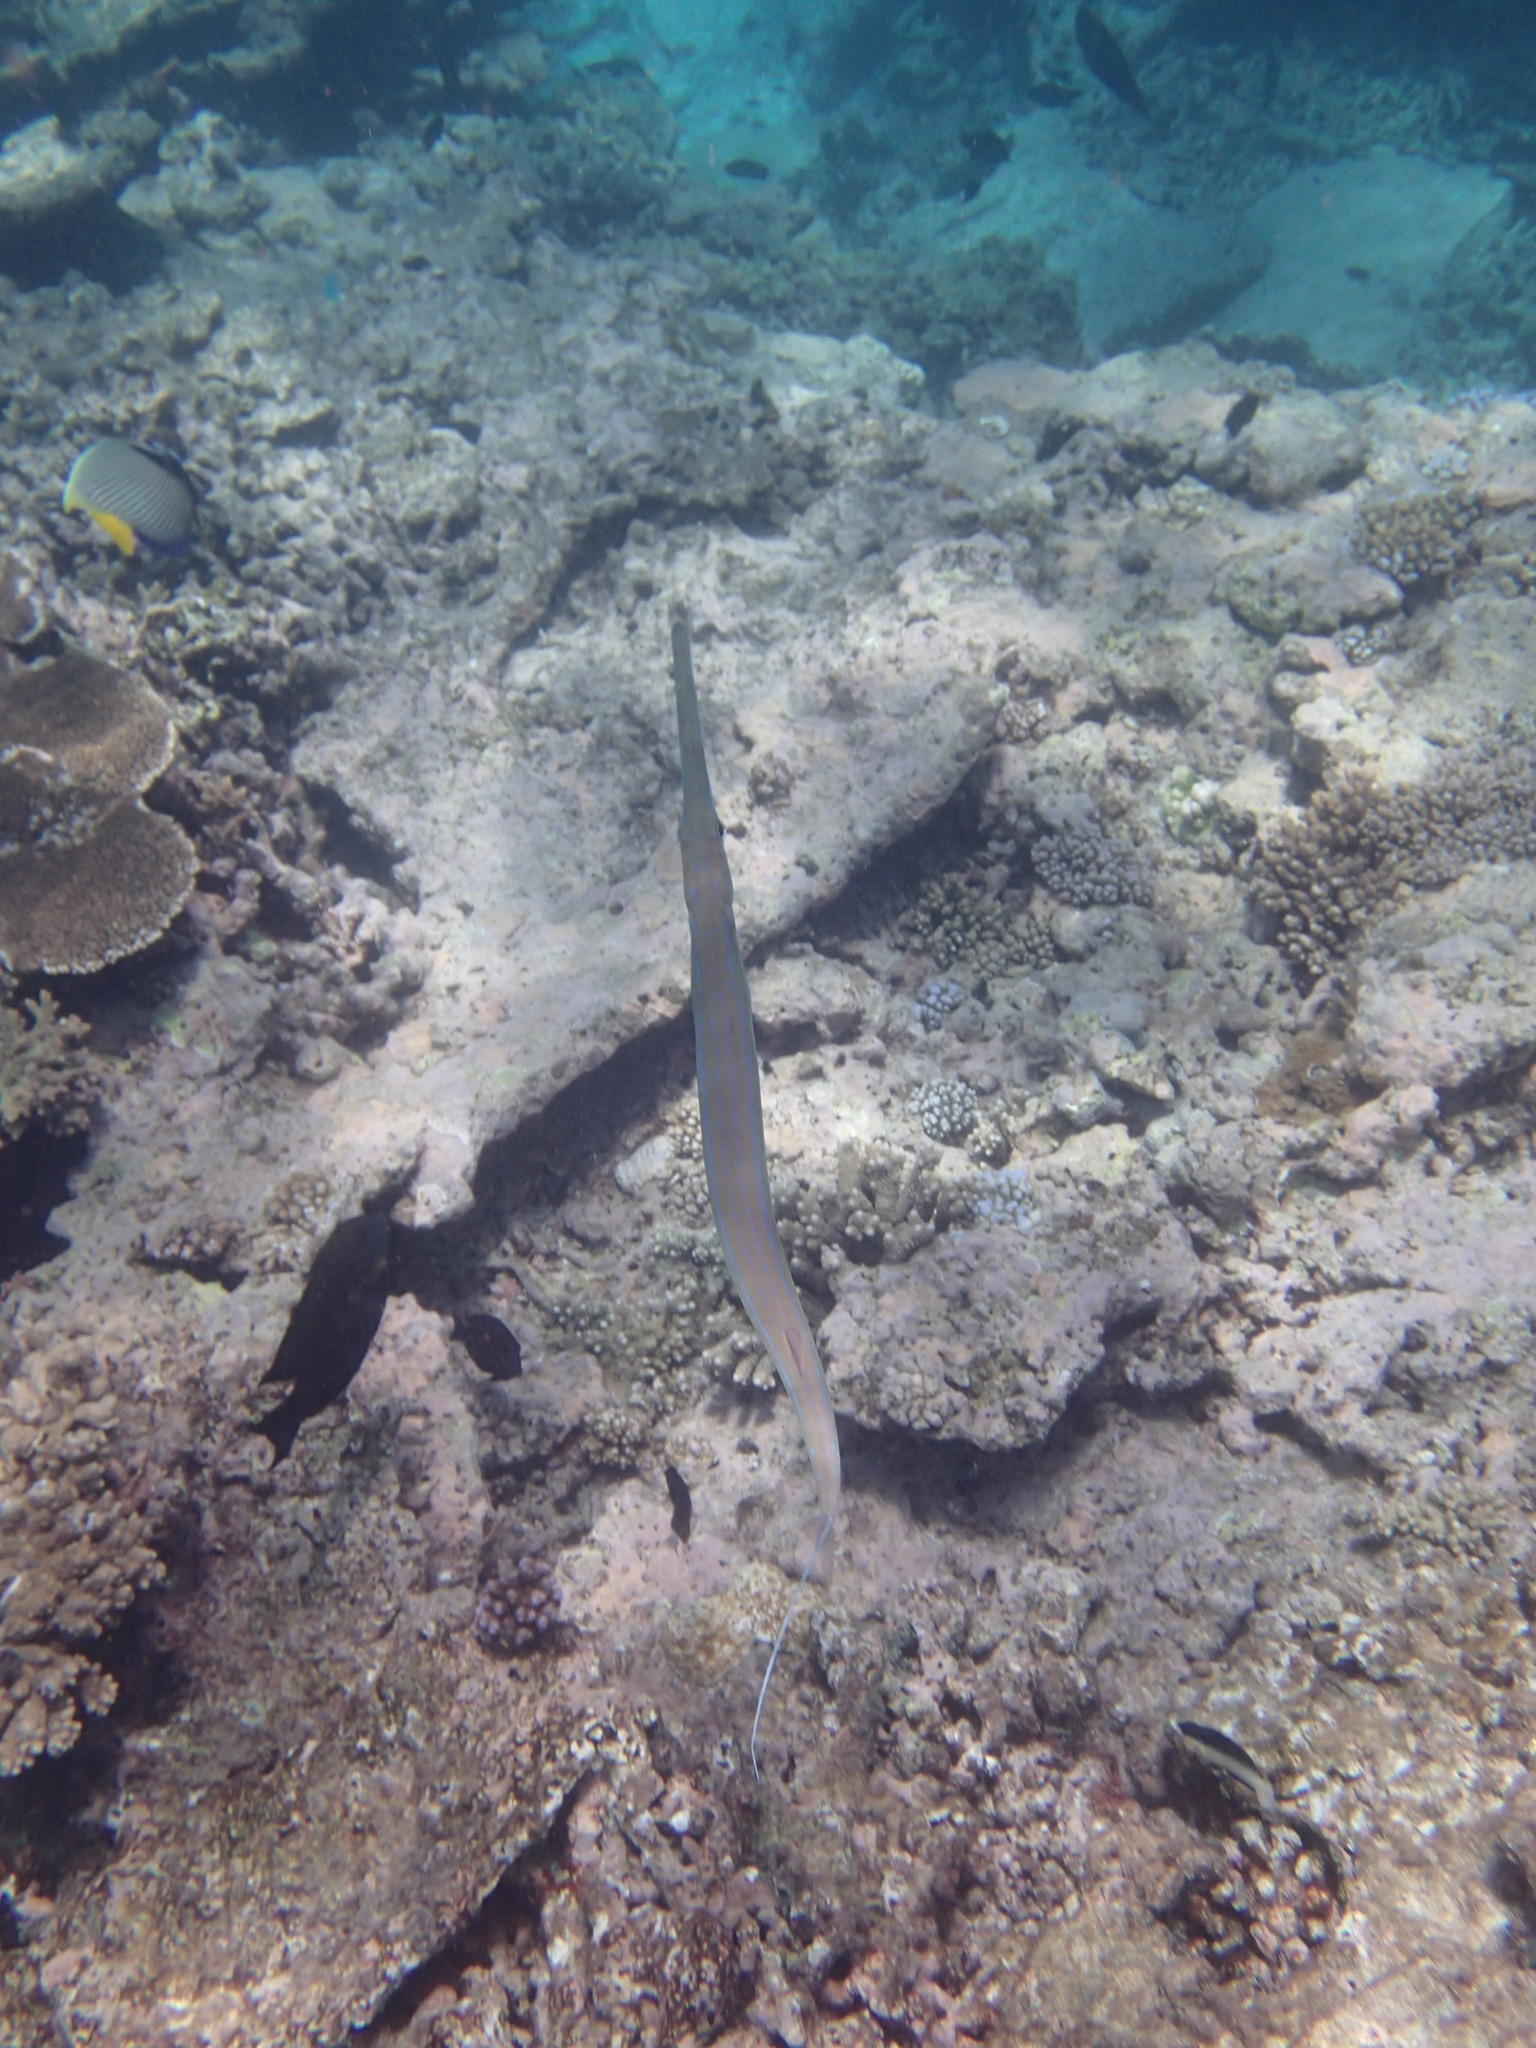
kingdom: Animalia
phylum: Chordata
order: Syngnathiformes
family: Fistulariidae
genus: Fistularia
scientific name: Fistularia commersonii
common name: Bluespotted cornetfish
